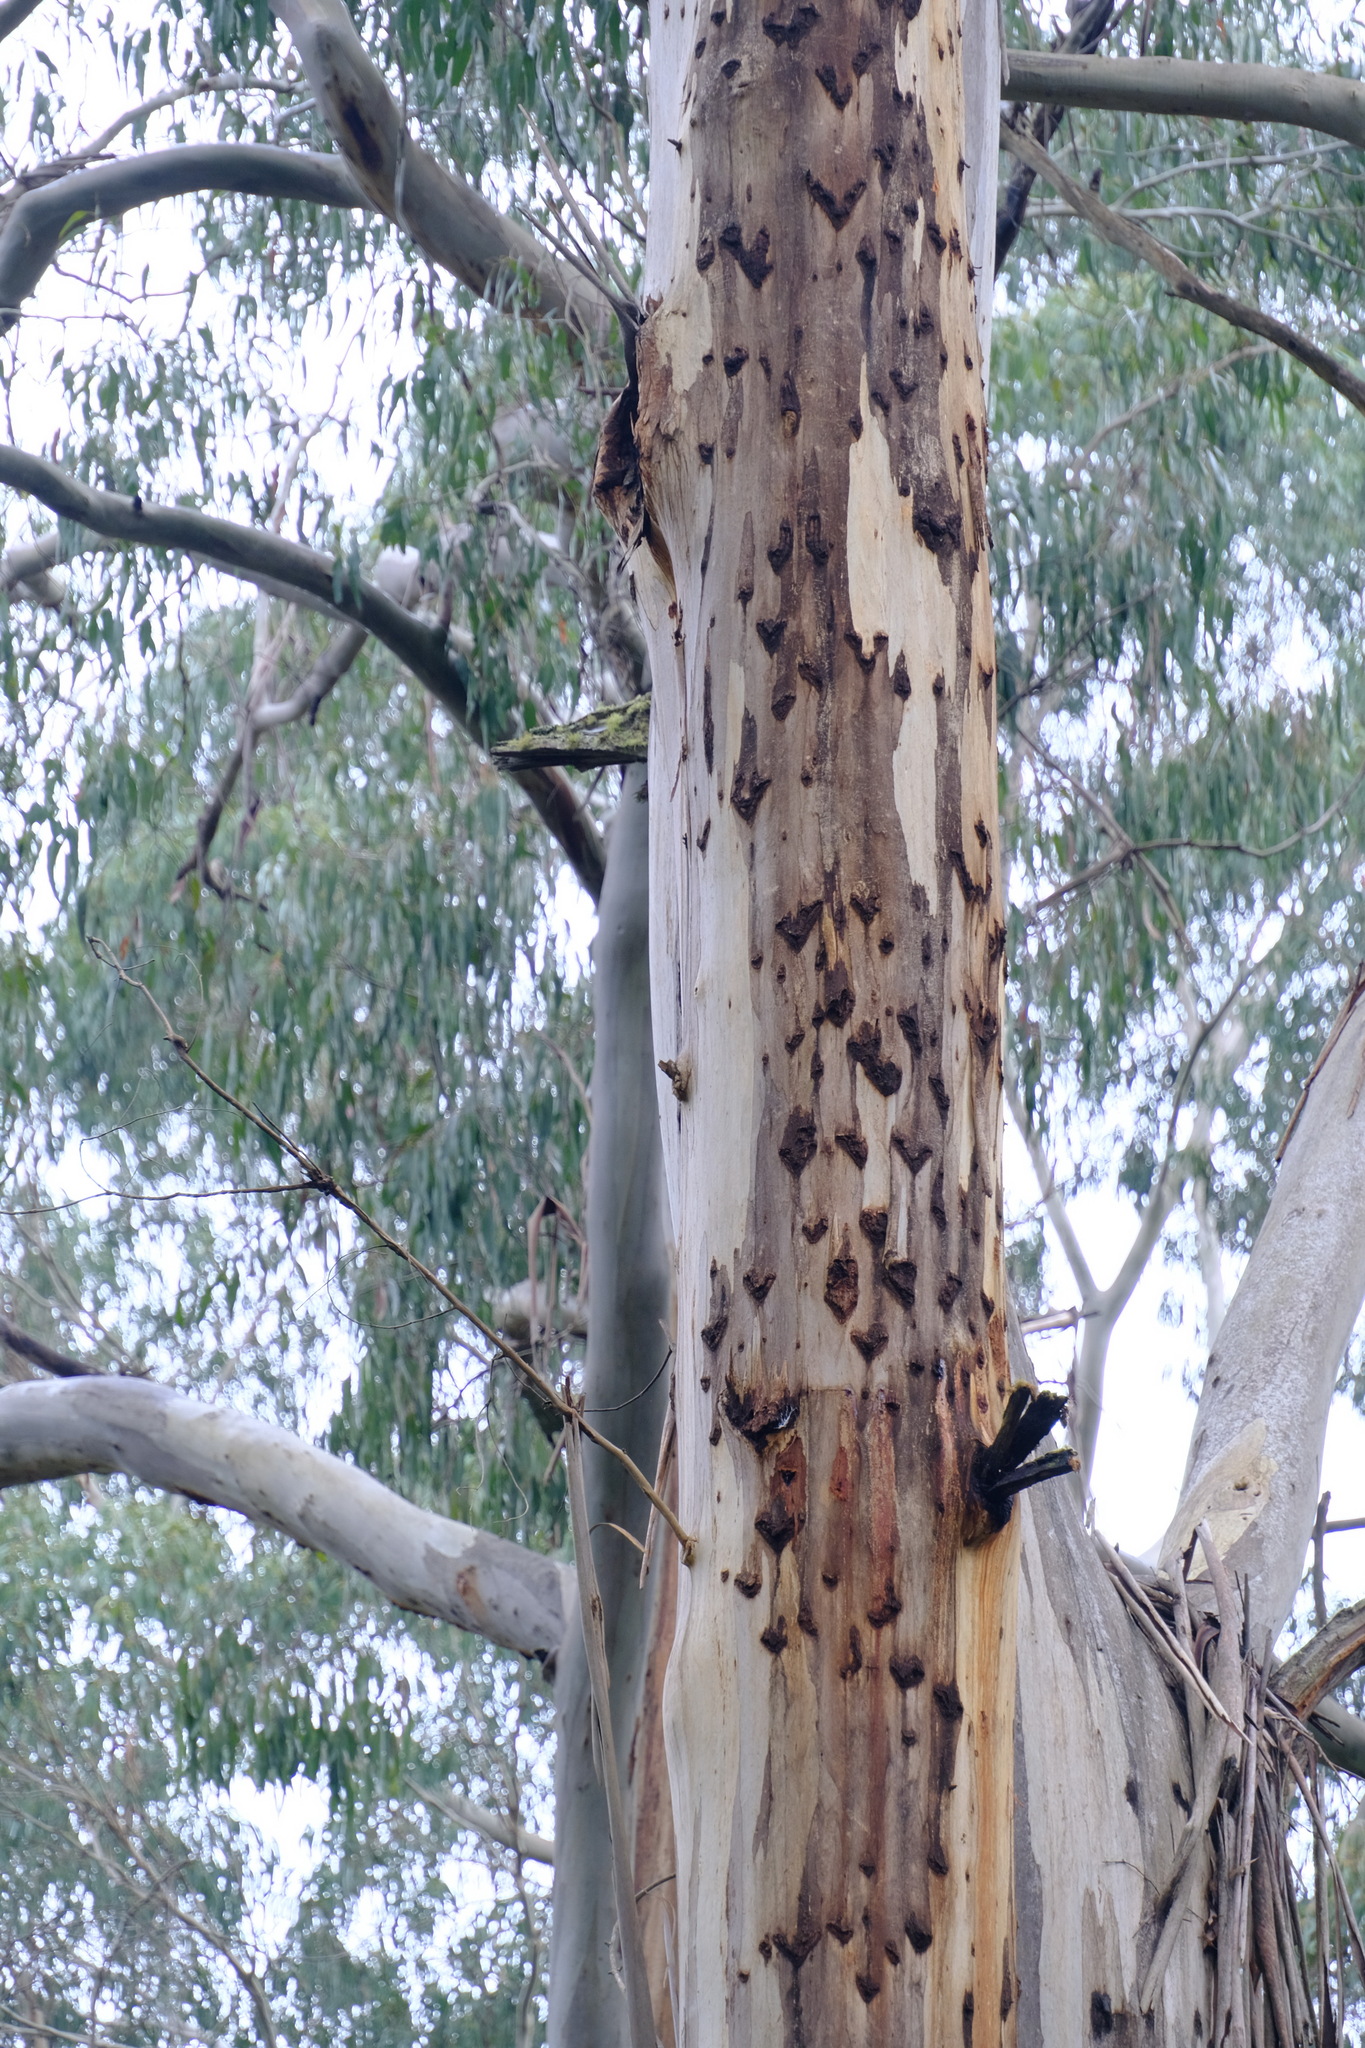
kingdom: Animalia
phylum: Chordata
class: Mammalia
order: Diprotodontia
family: Petauridae
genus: Petaurus
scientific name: Petaurus australis
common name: Yellow-bellied glider
